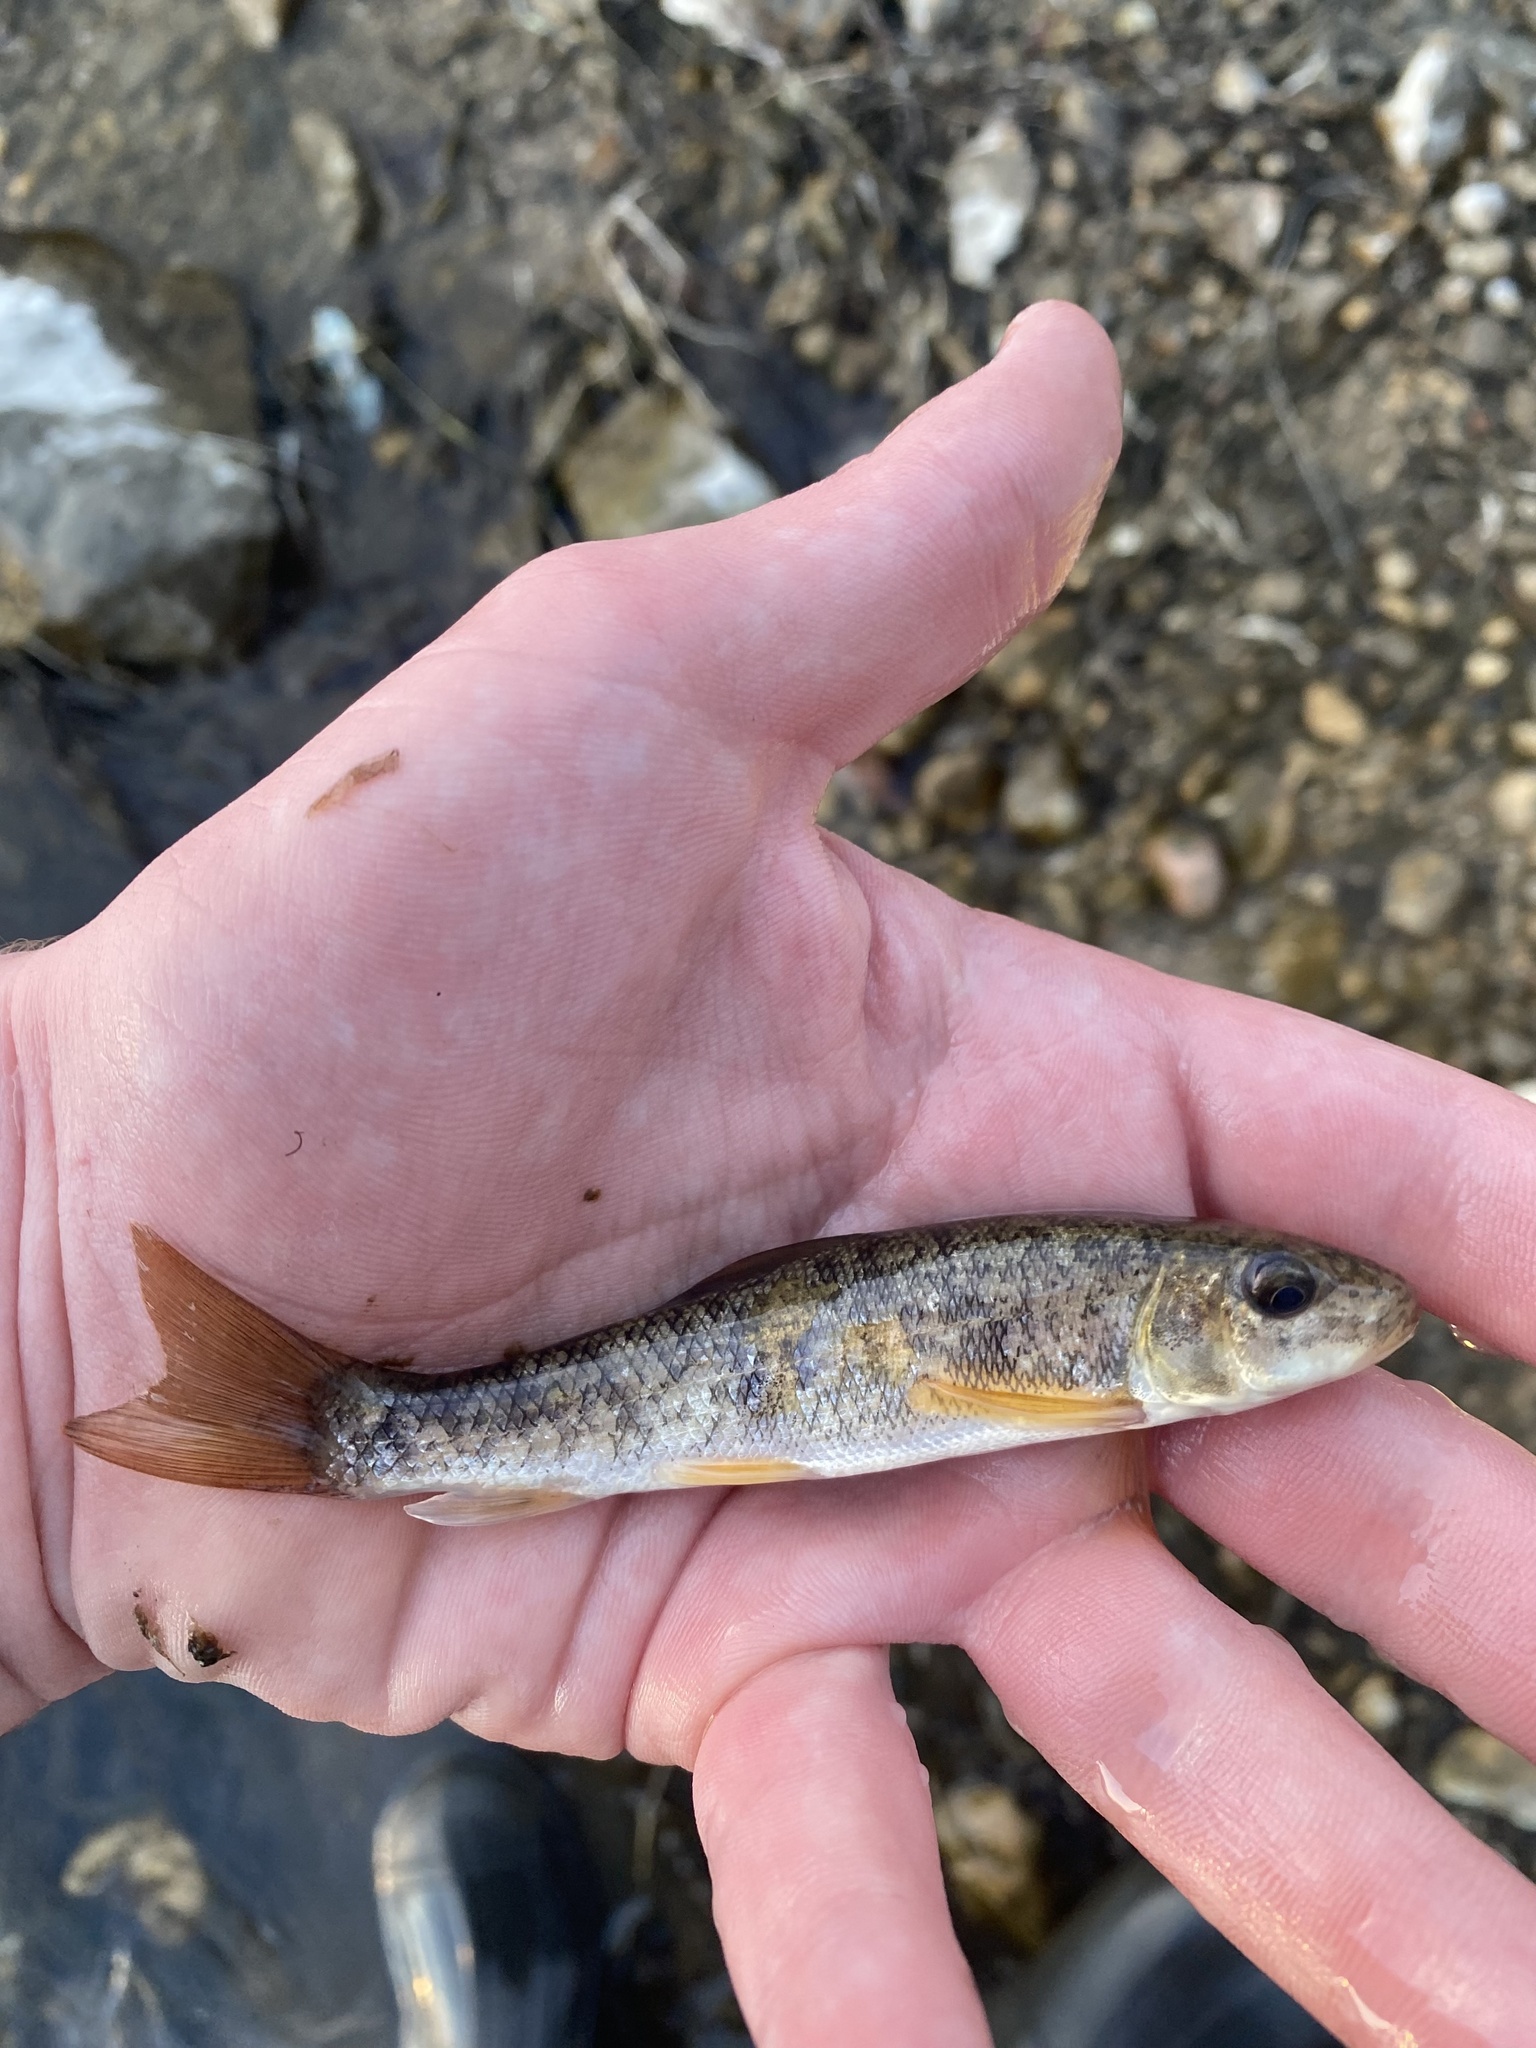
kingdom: Animalia
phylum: Chordata
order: Cypriniformes
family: Catostomidae
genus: Catostomus
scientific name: Catostomus commersonii
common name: White sucker
